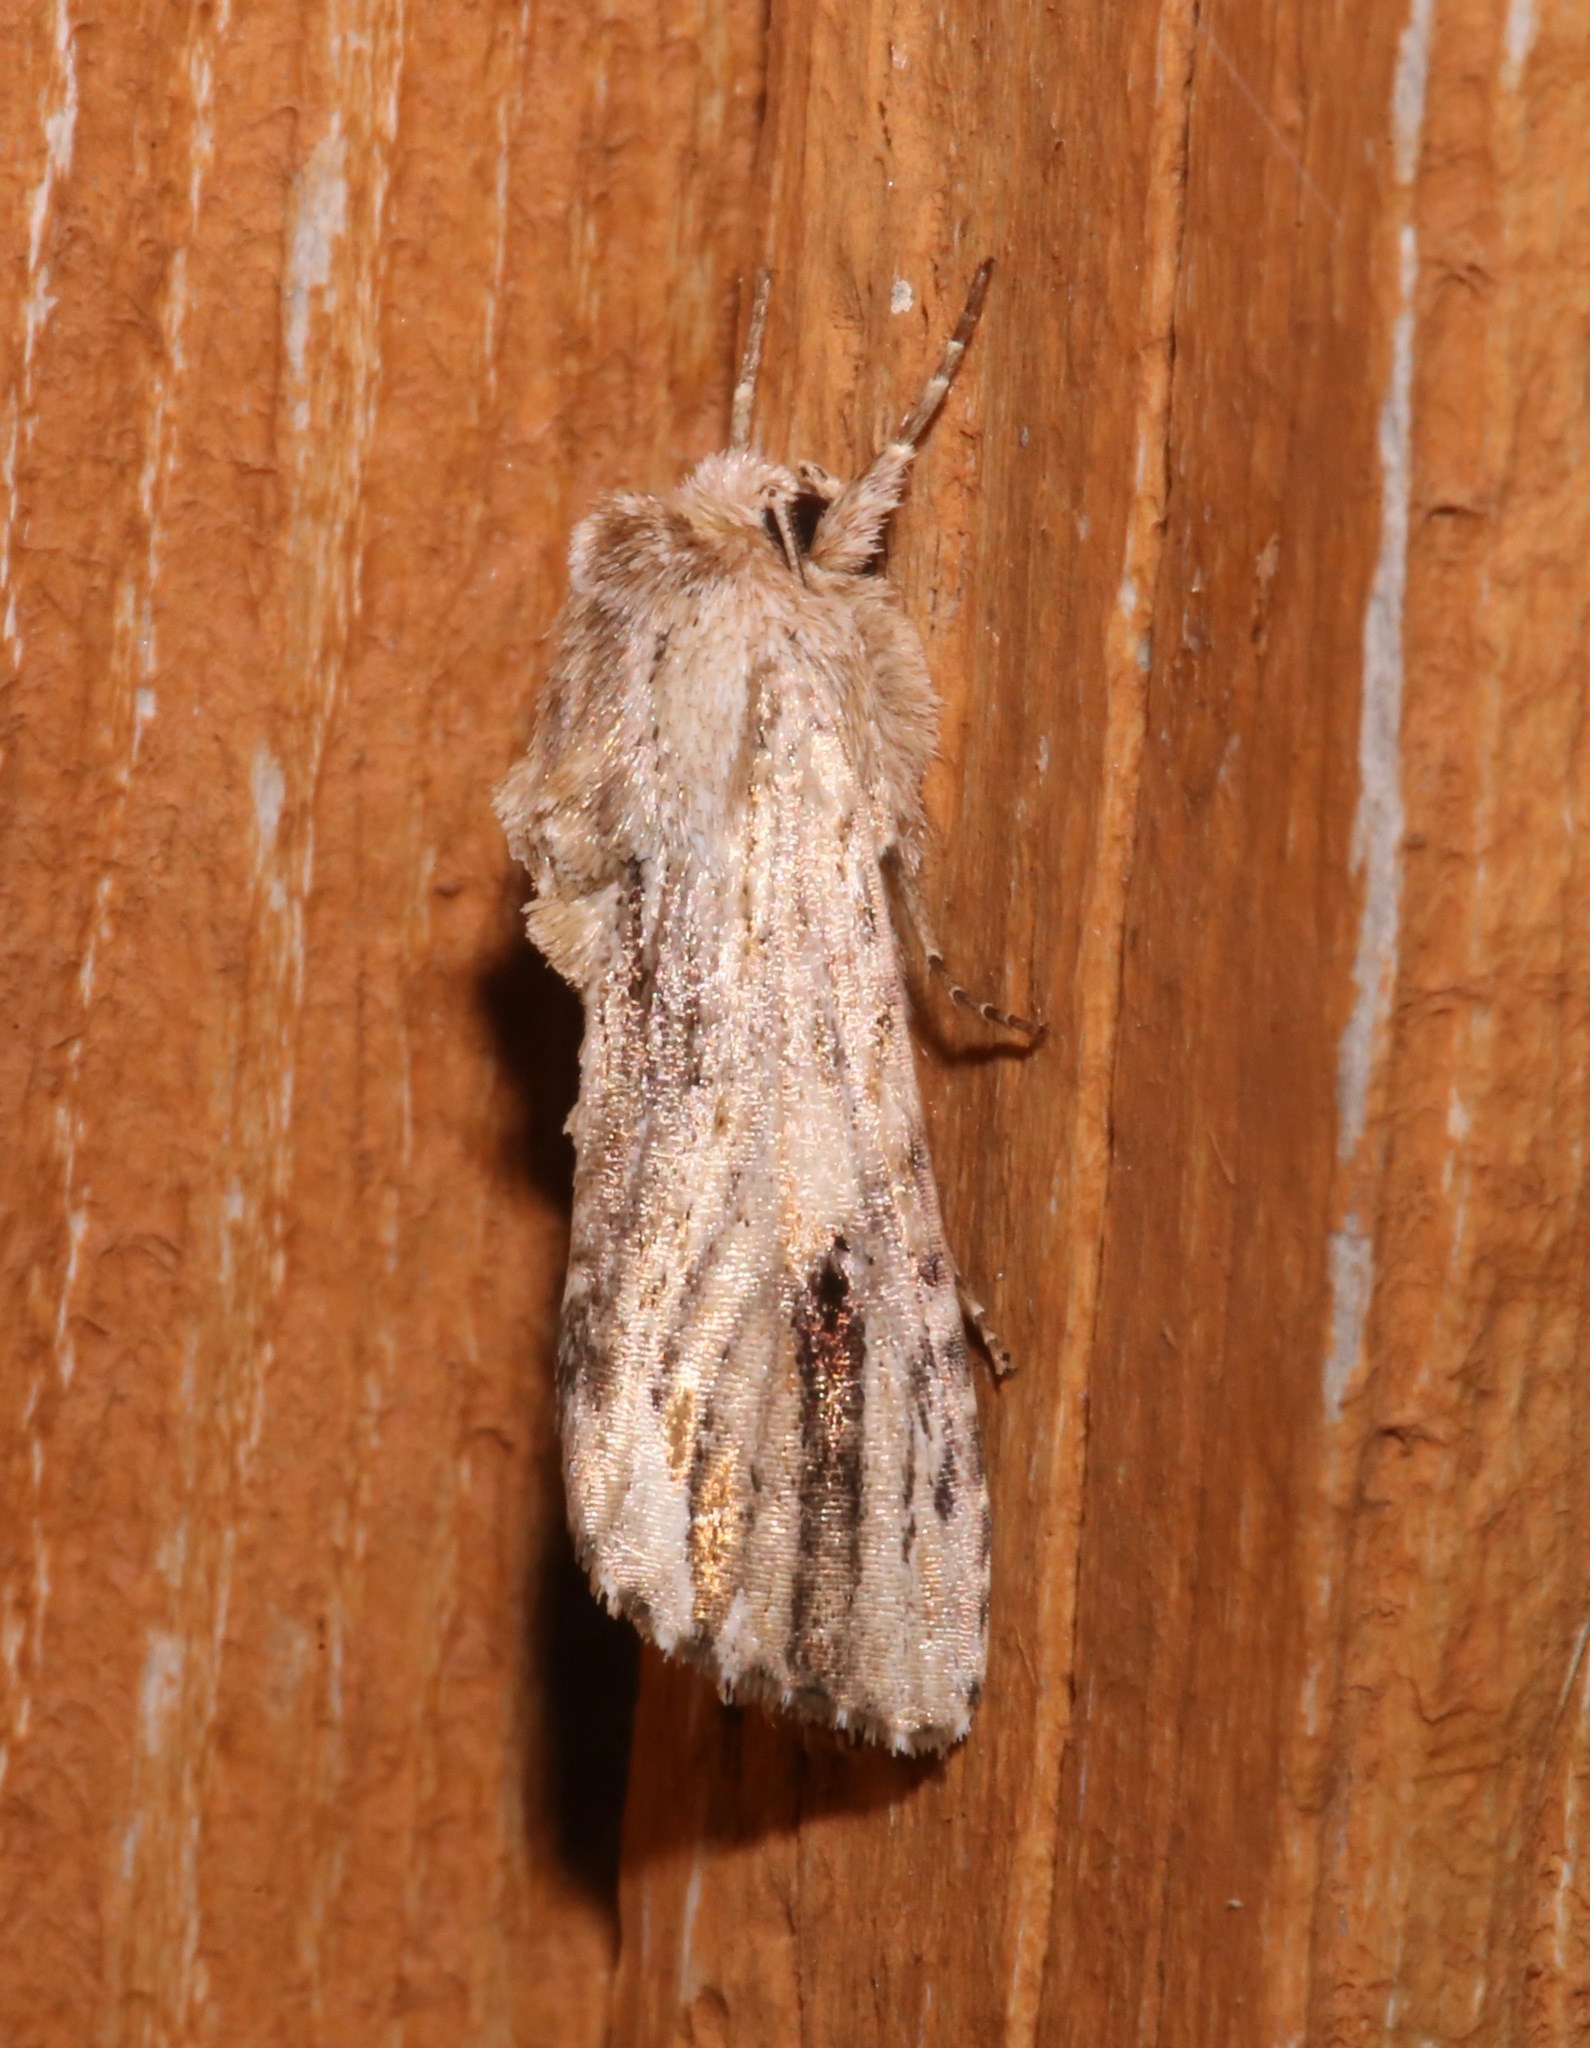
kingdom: Animalia
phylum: Arthropoda
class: Insecta
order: Lepidoptera
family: Noctuidae
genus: Spodoptera
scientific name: Spodoptera eridania
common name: Southern army worm
